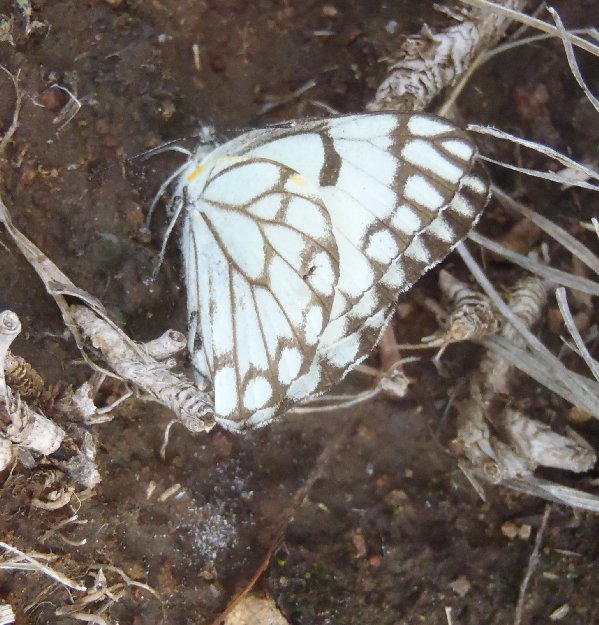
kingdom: Animalia
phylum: Arthropoda
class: Insecta
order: Lepidoptera
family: Pieridae
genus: Belenois
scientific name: Belenois aurota
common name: Brown-veined white
